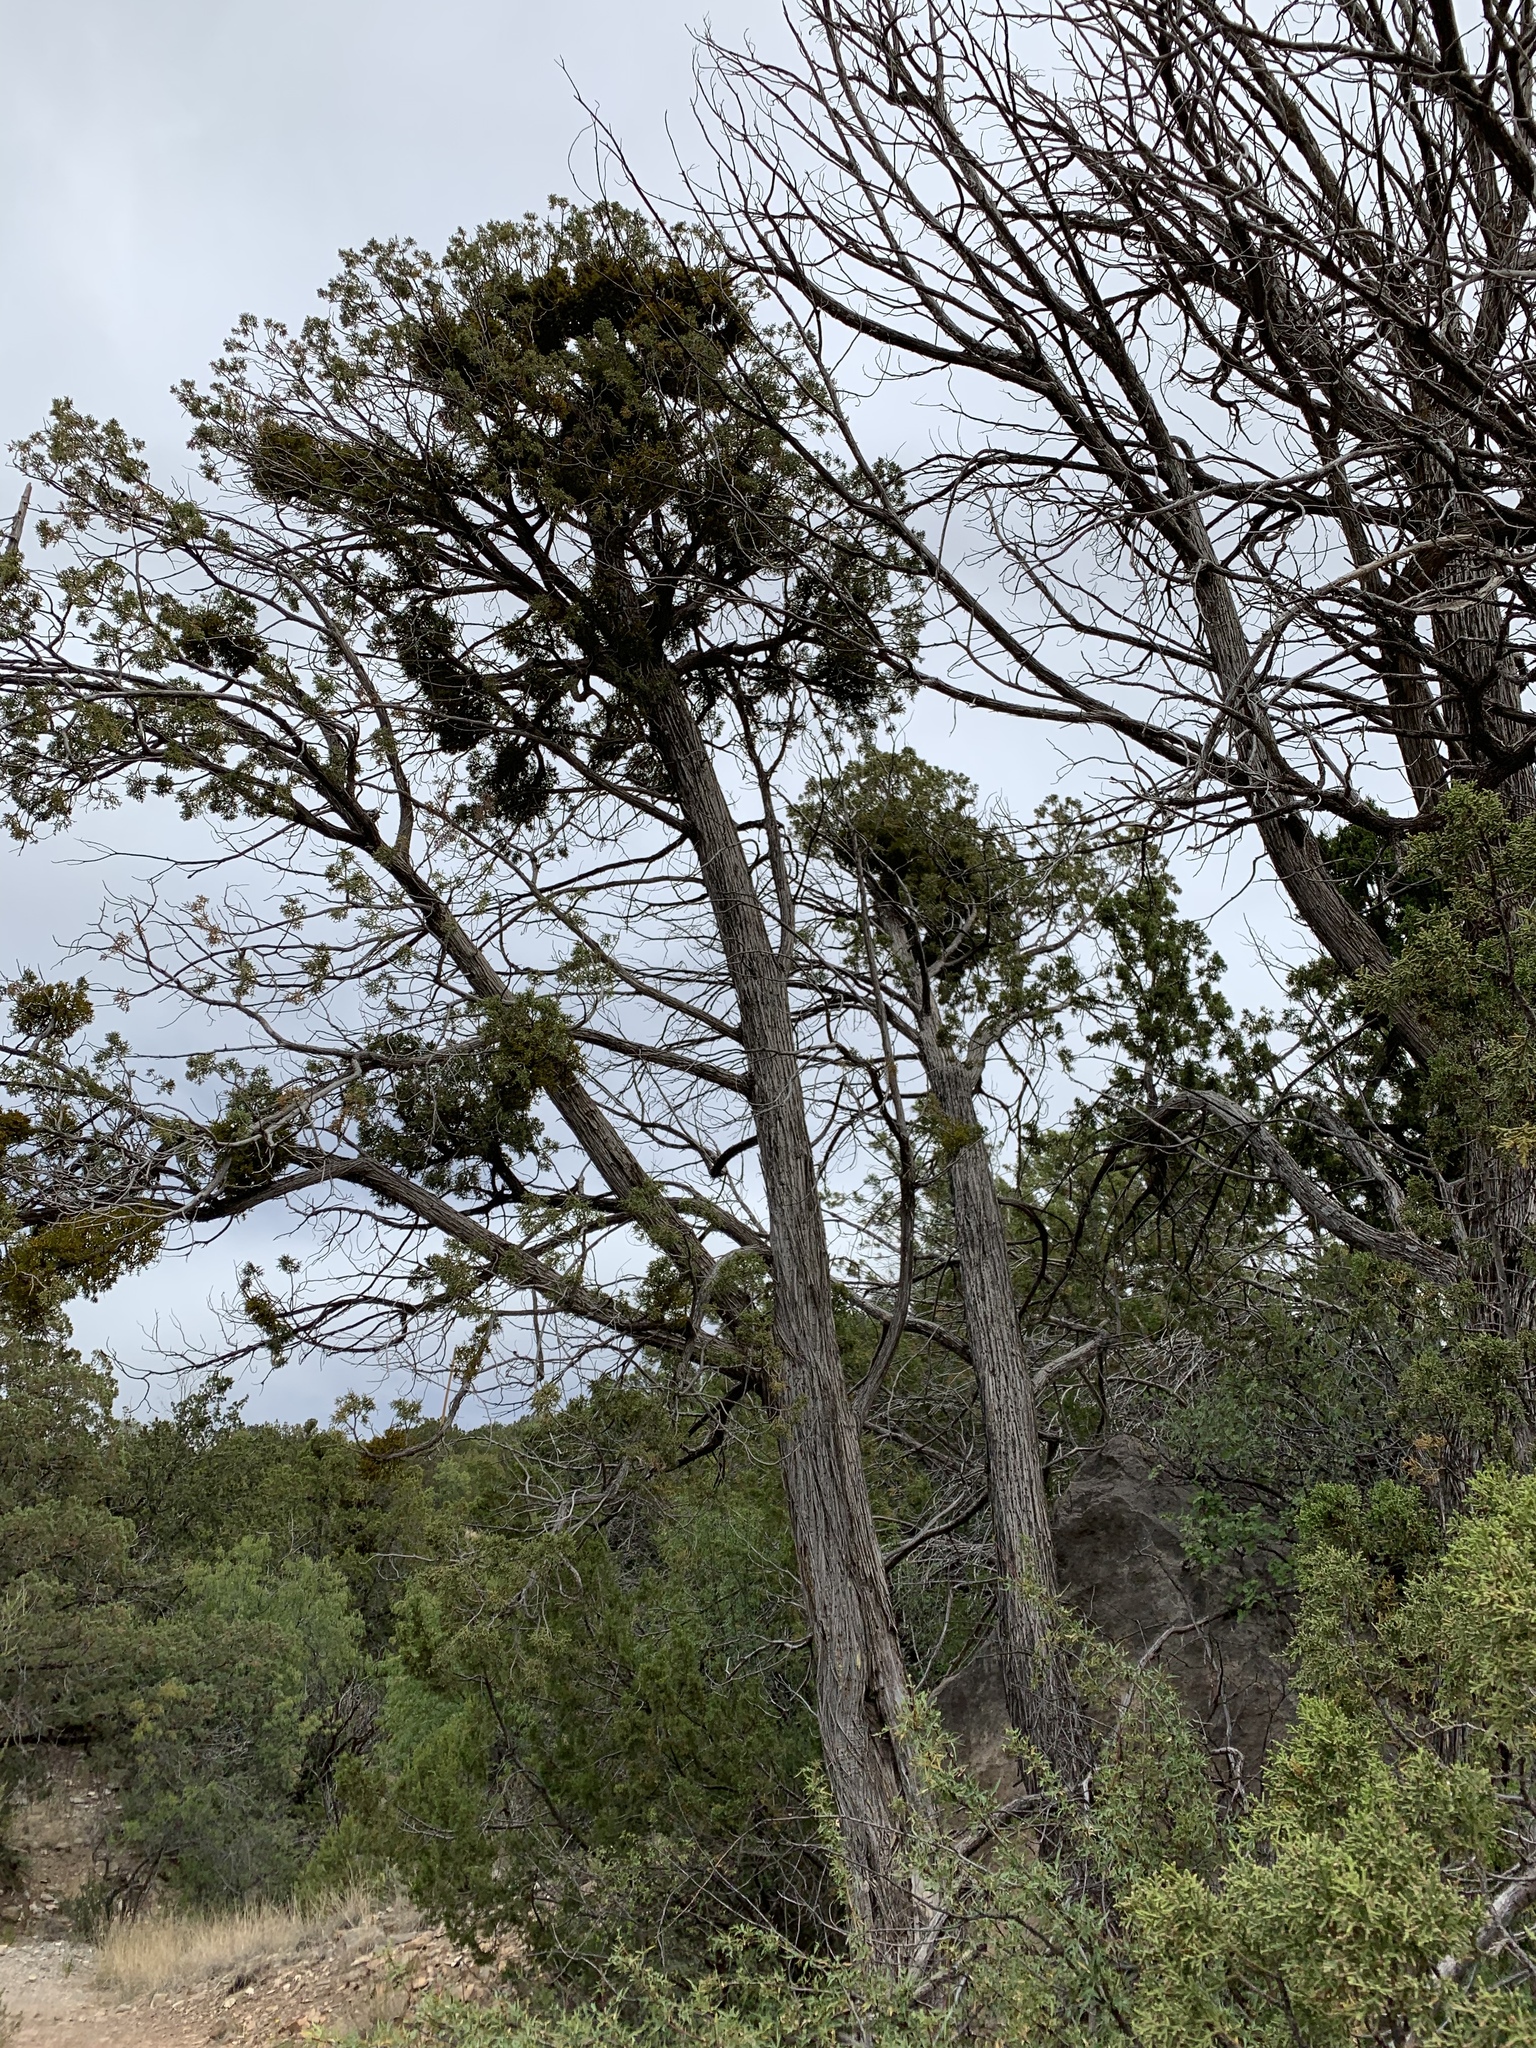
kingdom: Plantae
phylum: Tracheophyta
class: Pinopsida
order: Pinales
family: Cupressaceae
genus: Juniperus
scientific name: Juniperus monosperma
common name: One-seed juniper
